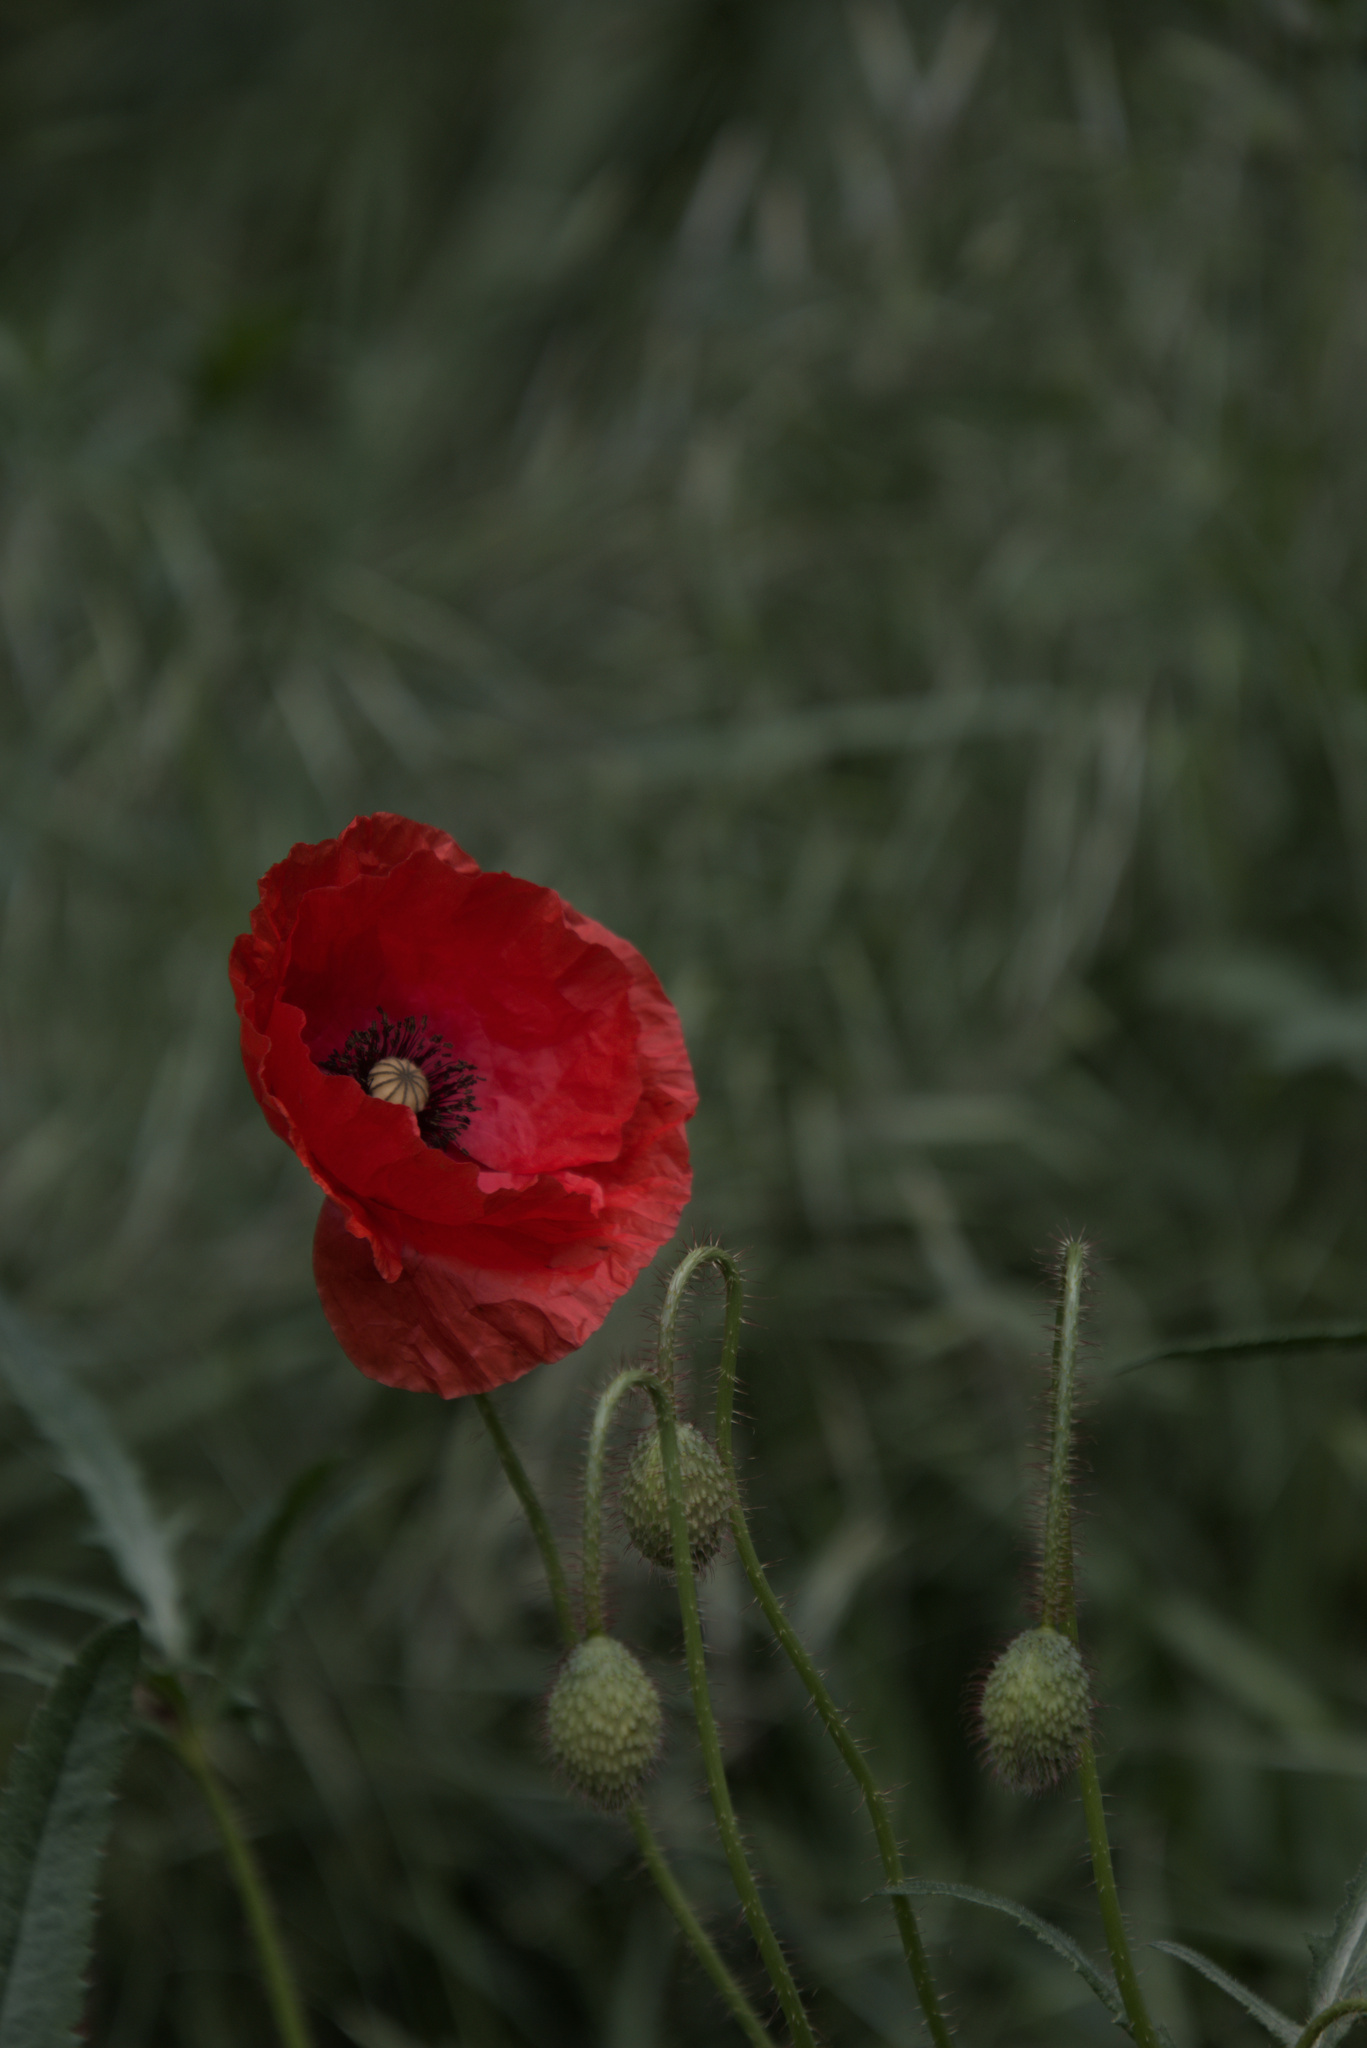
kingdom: Plantae
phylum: Tracheophyta
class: Magnoliopsida
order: Ranunculales
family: Papaveraceae
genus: Papaver
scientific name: Papaver rhoeas
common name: Corn poppy
